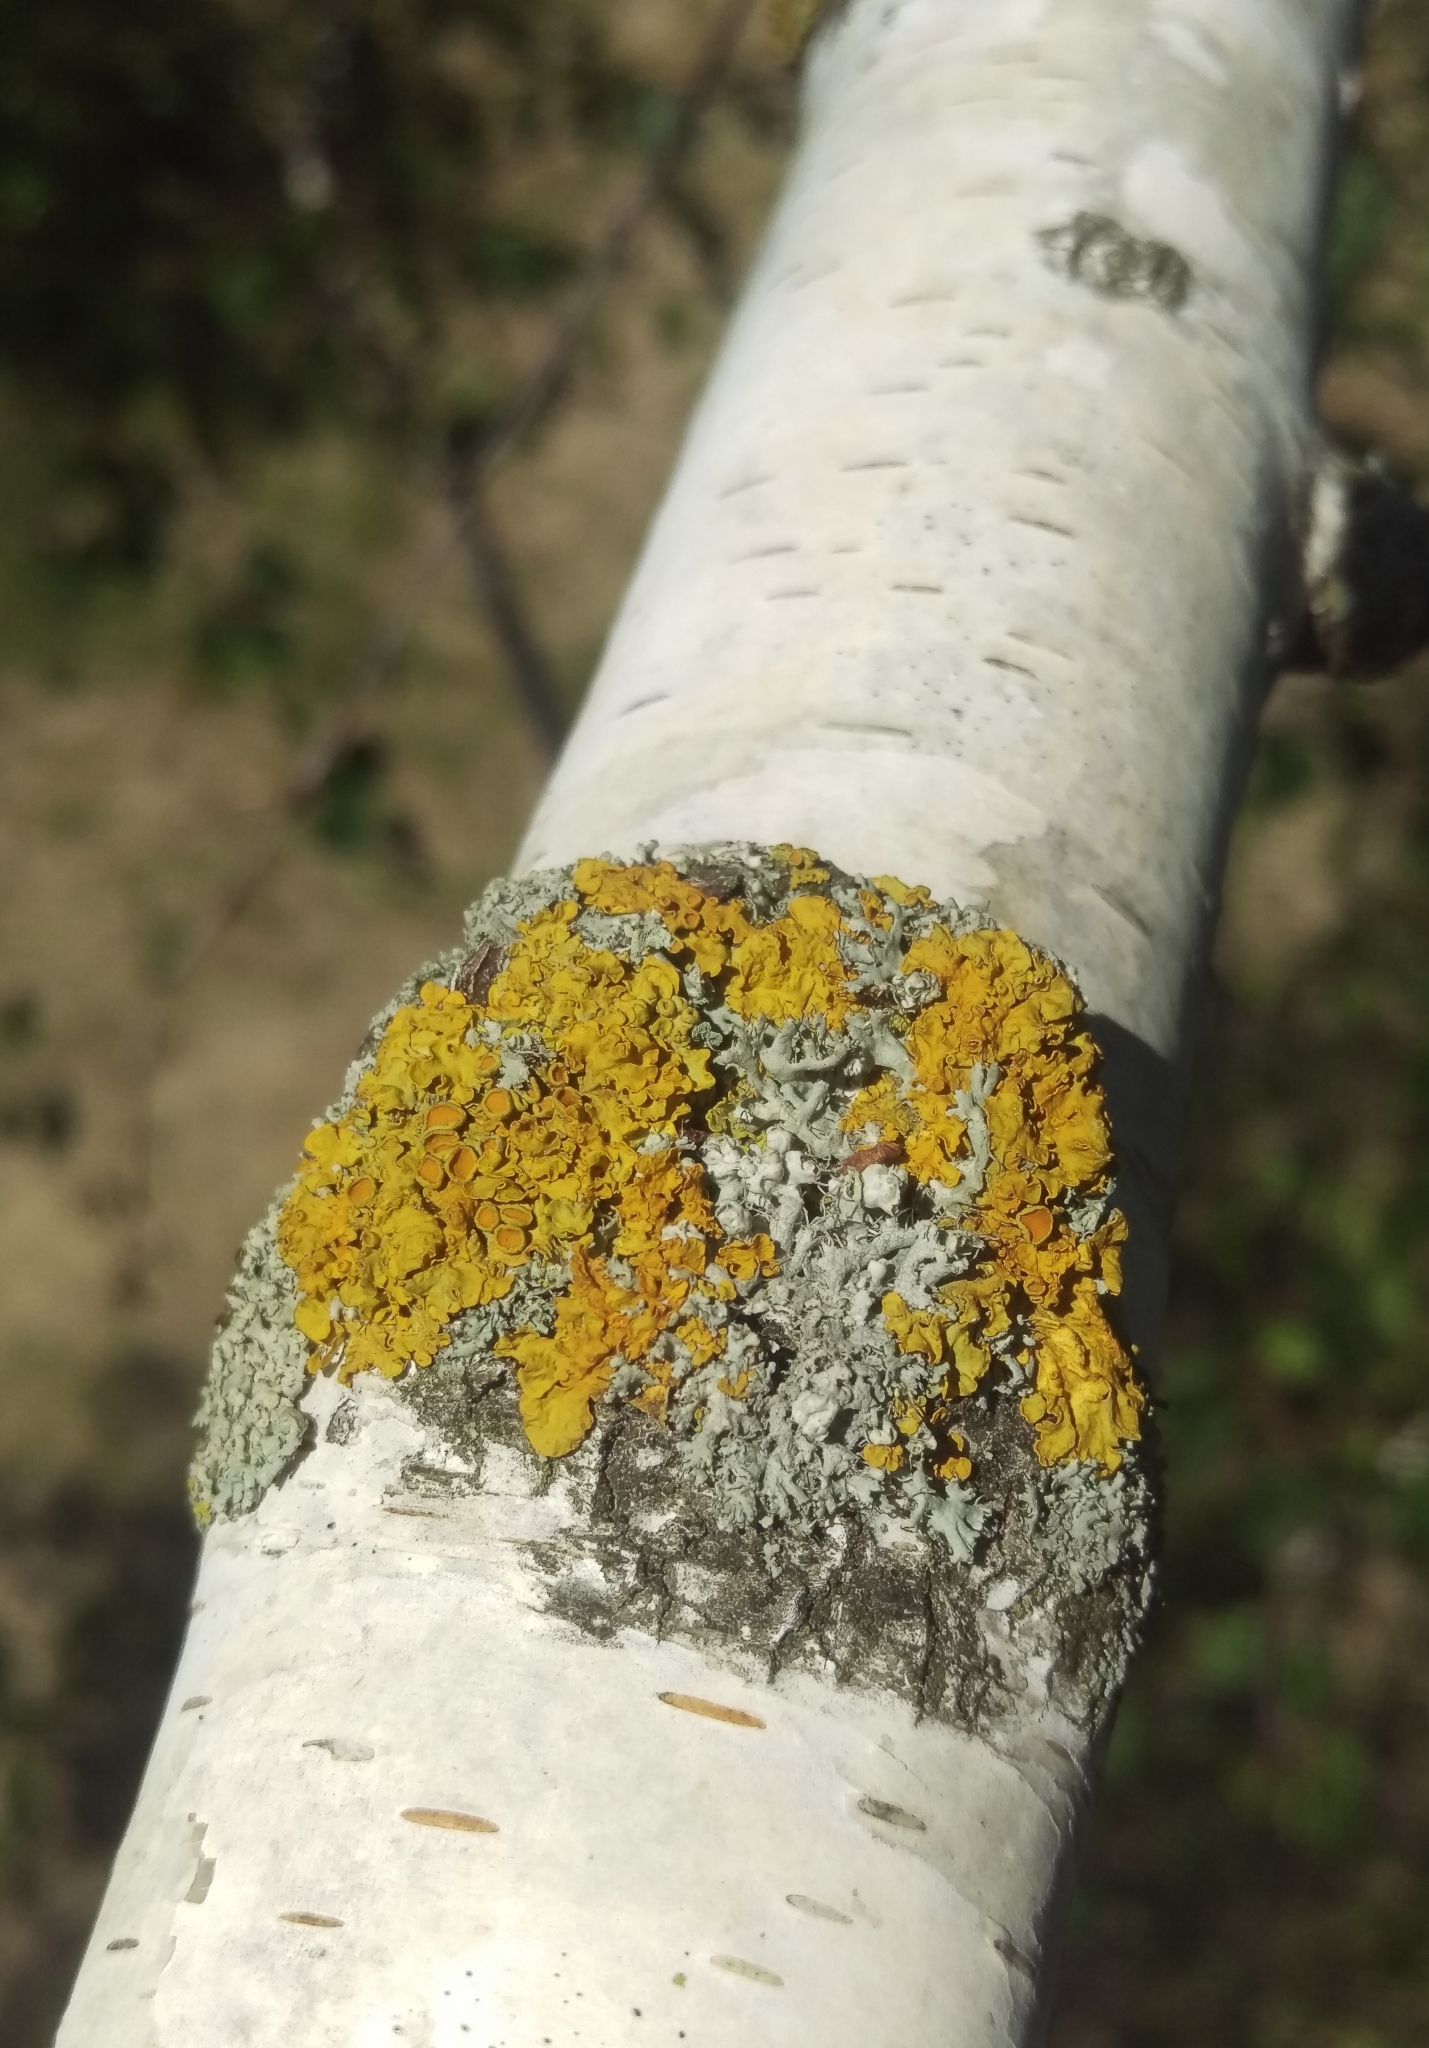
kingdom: Fungi
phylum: Ascomycota
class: Lecanoromycetes
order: Teloschistales
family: Teloschistaceae
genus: Xanthoria
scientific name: Xanthoria parietina
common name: Common orange lichen
